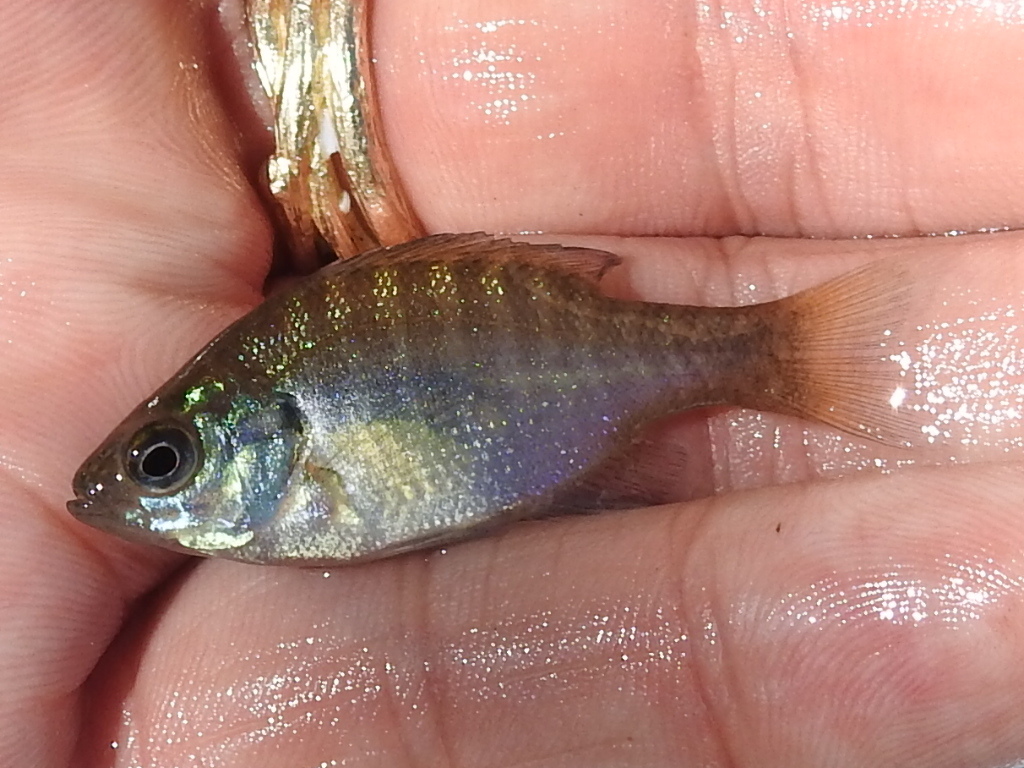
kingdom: Animalia
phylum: Chordata
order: Perciformes
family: Centrarchidae
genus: Lepomis
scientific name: Lepomis macrochirus
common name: Bluegill
